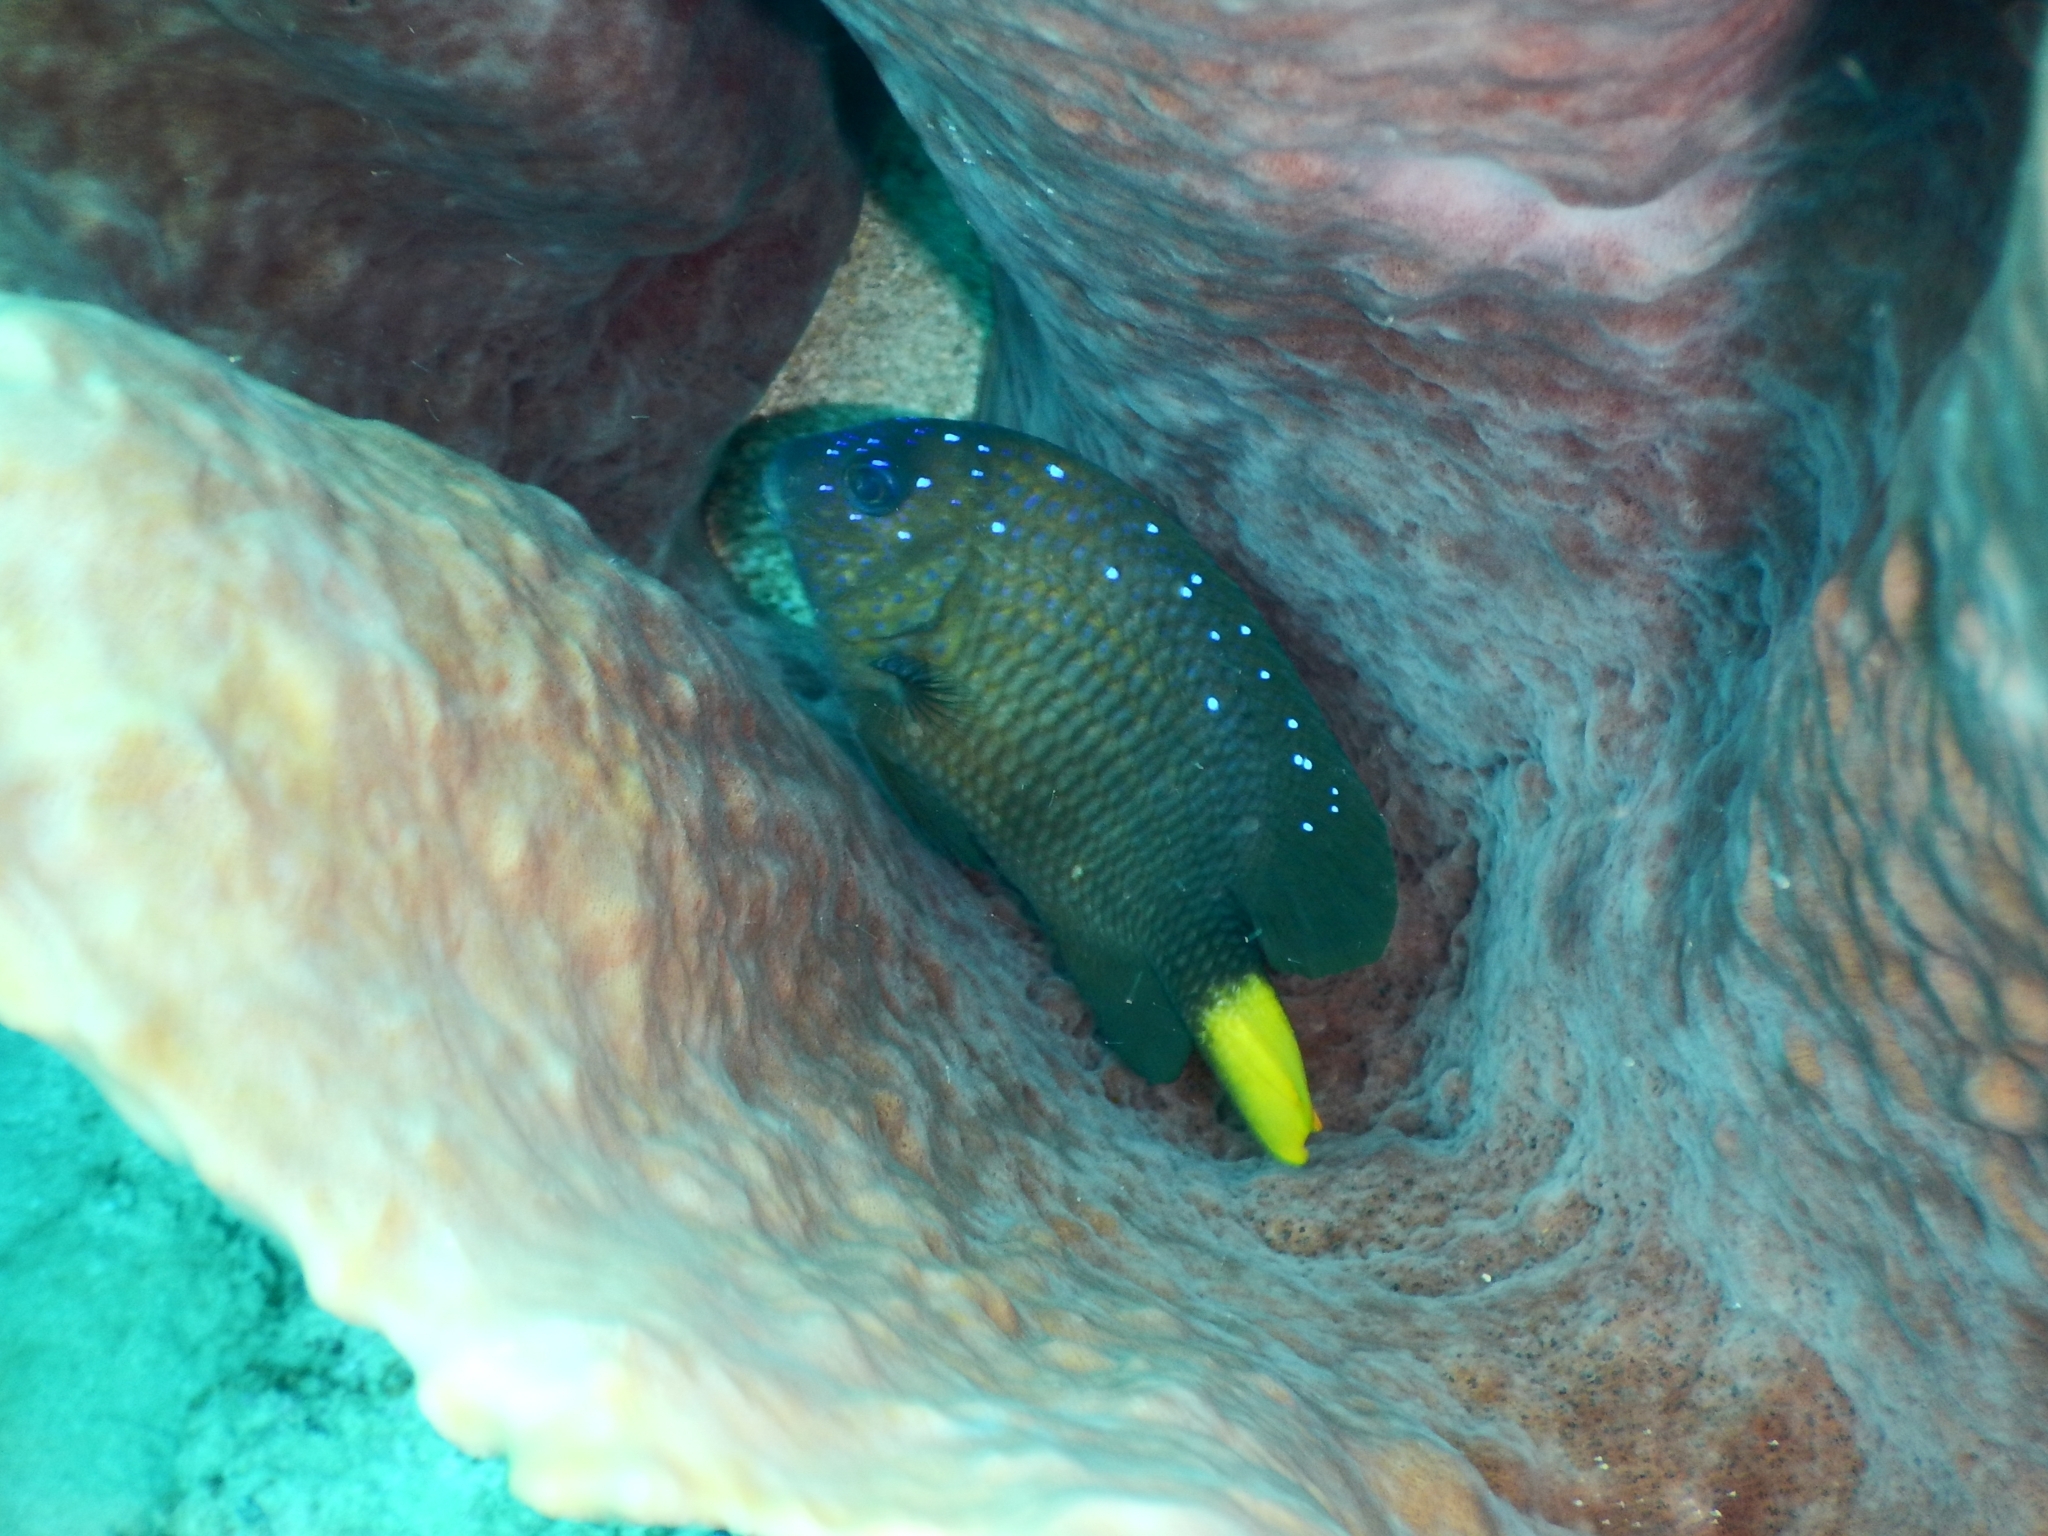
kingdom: Animalia
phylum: Chordata
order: Perciformes
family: Pomacentridae
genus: Microspathodon
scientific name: Microspathodon chrysurus
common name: Yellowtail damselfish
